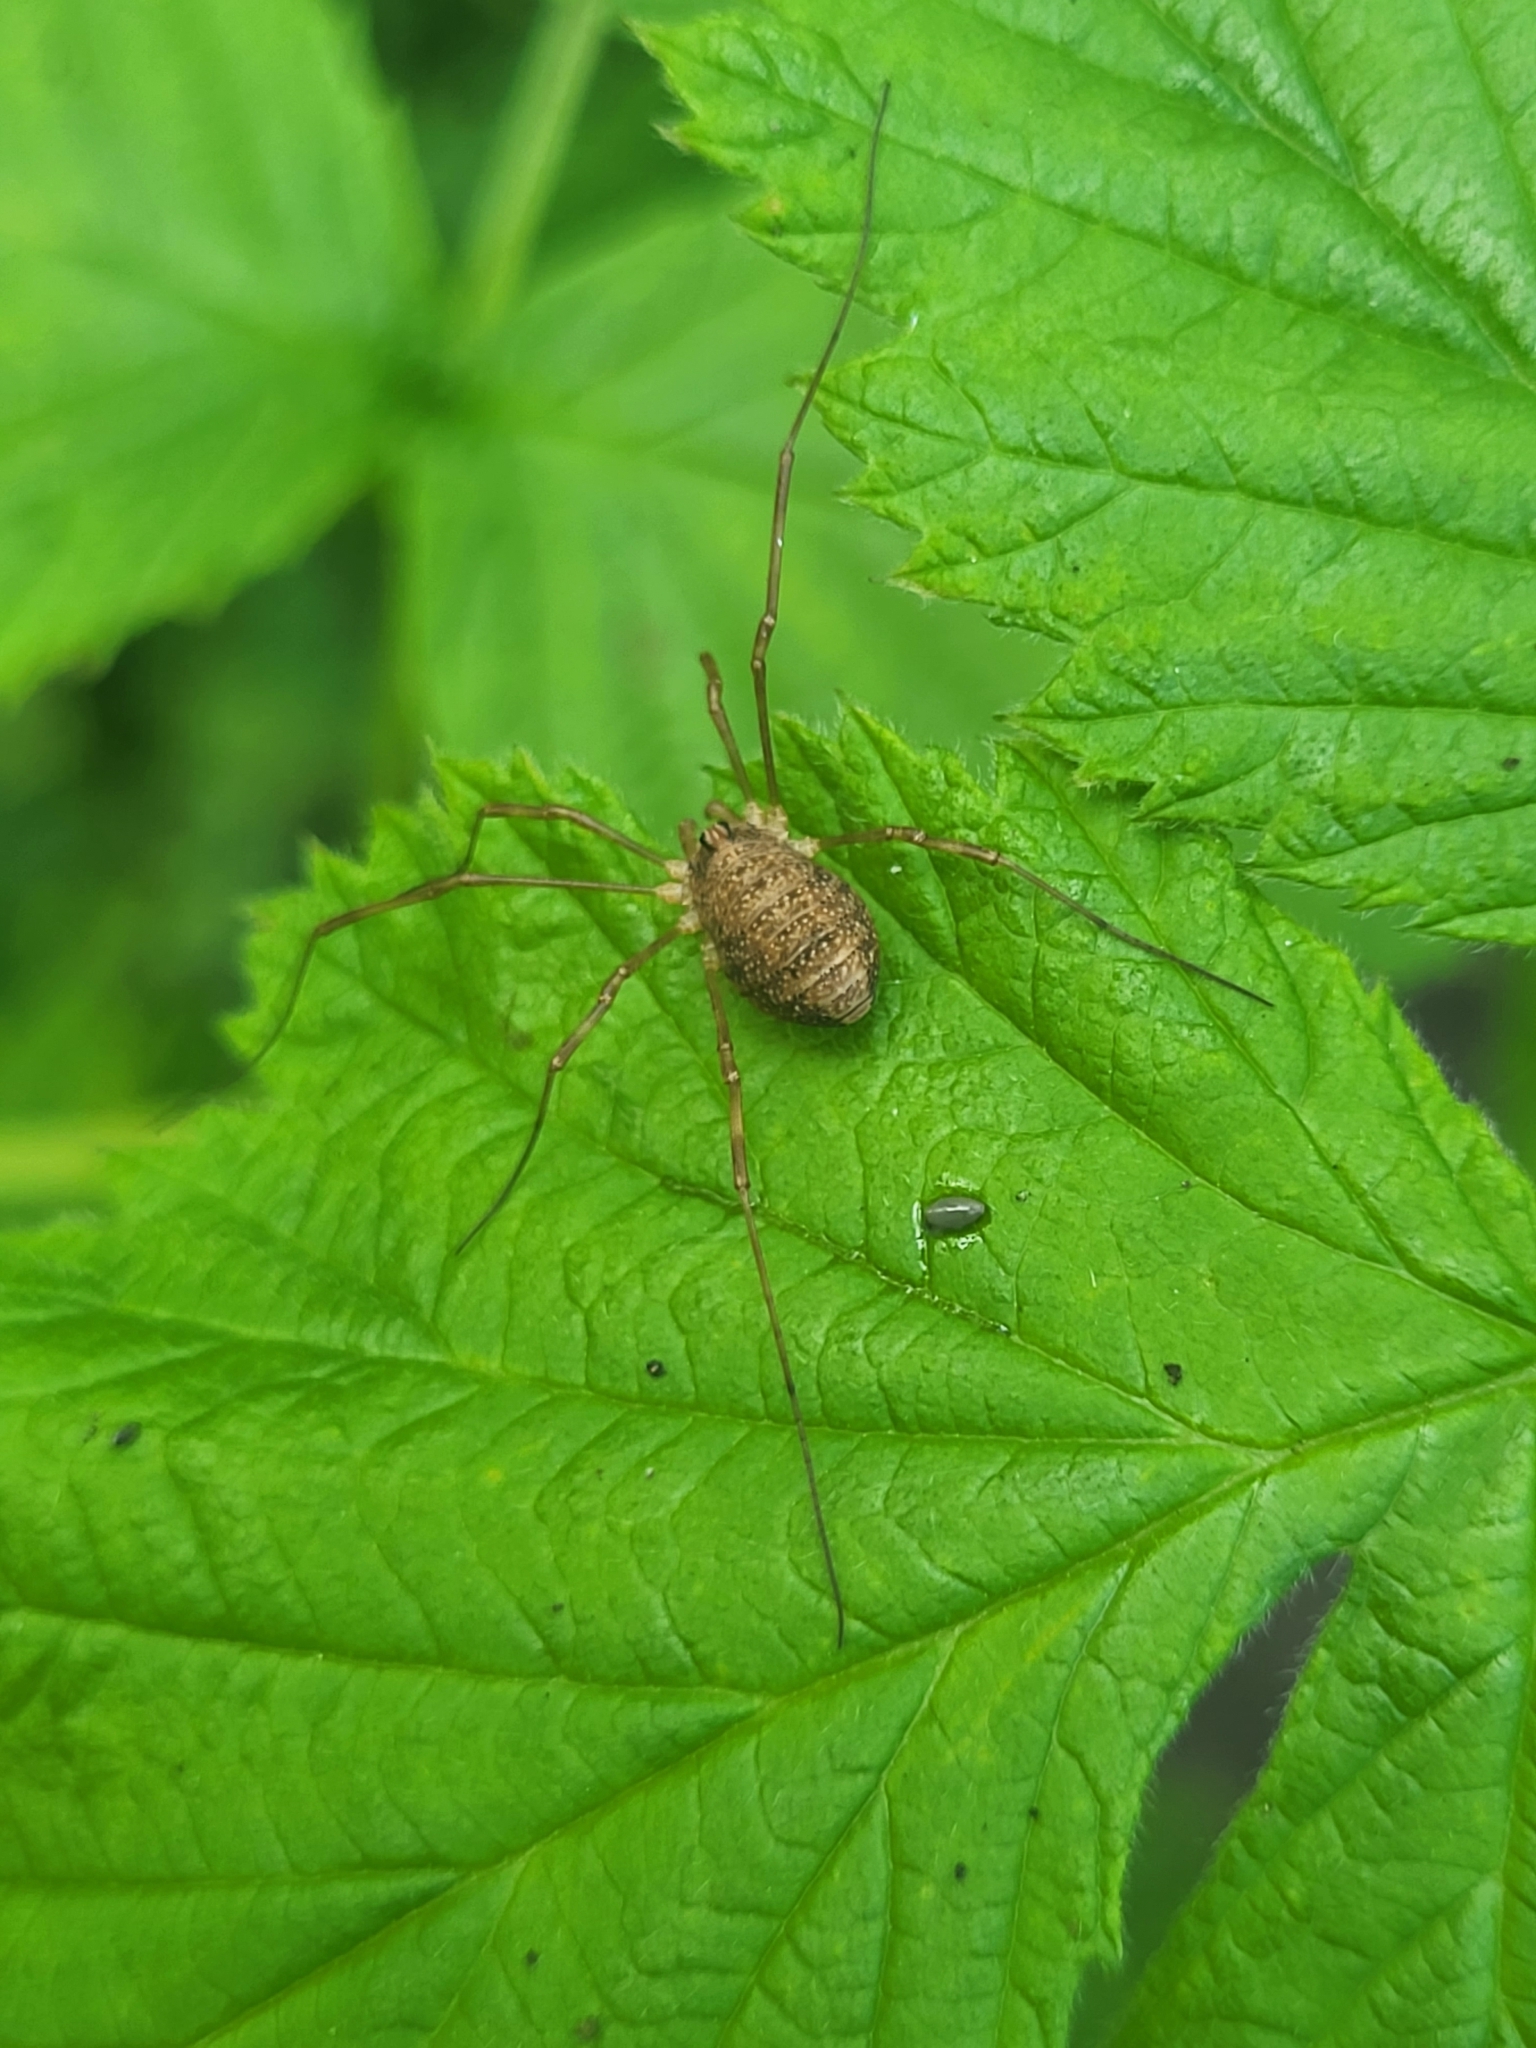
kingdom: Animalia
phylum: Arthropoda
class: Arachnida
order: Opiliones
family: Phalangiidae
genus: Rilaena
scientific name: Rilaena triangularis
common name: Spring harvestman
